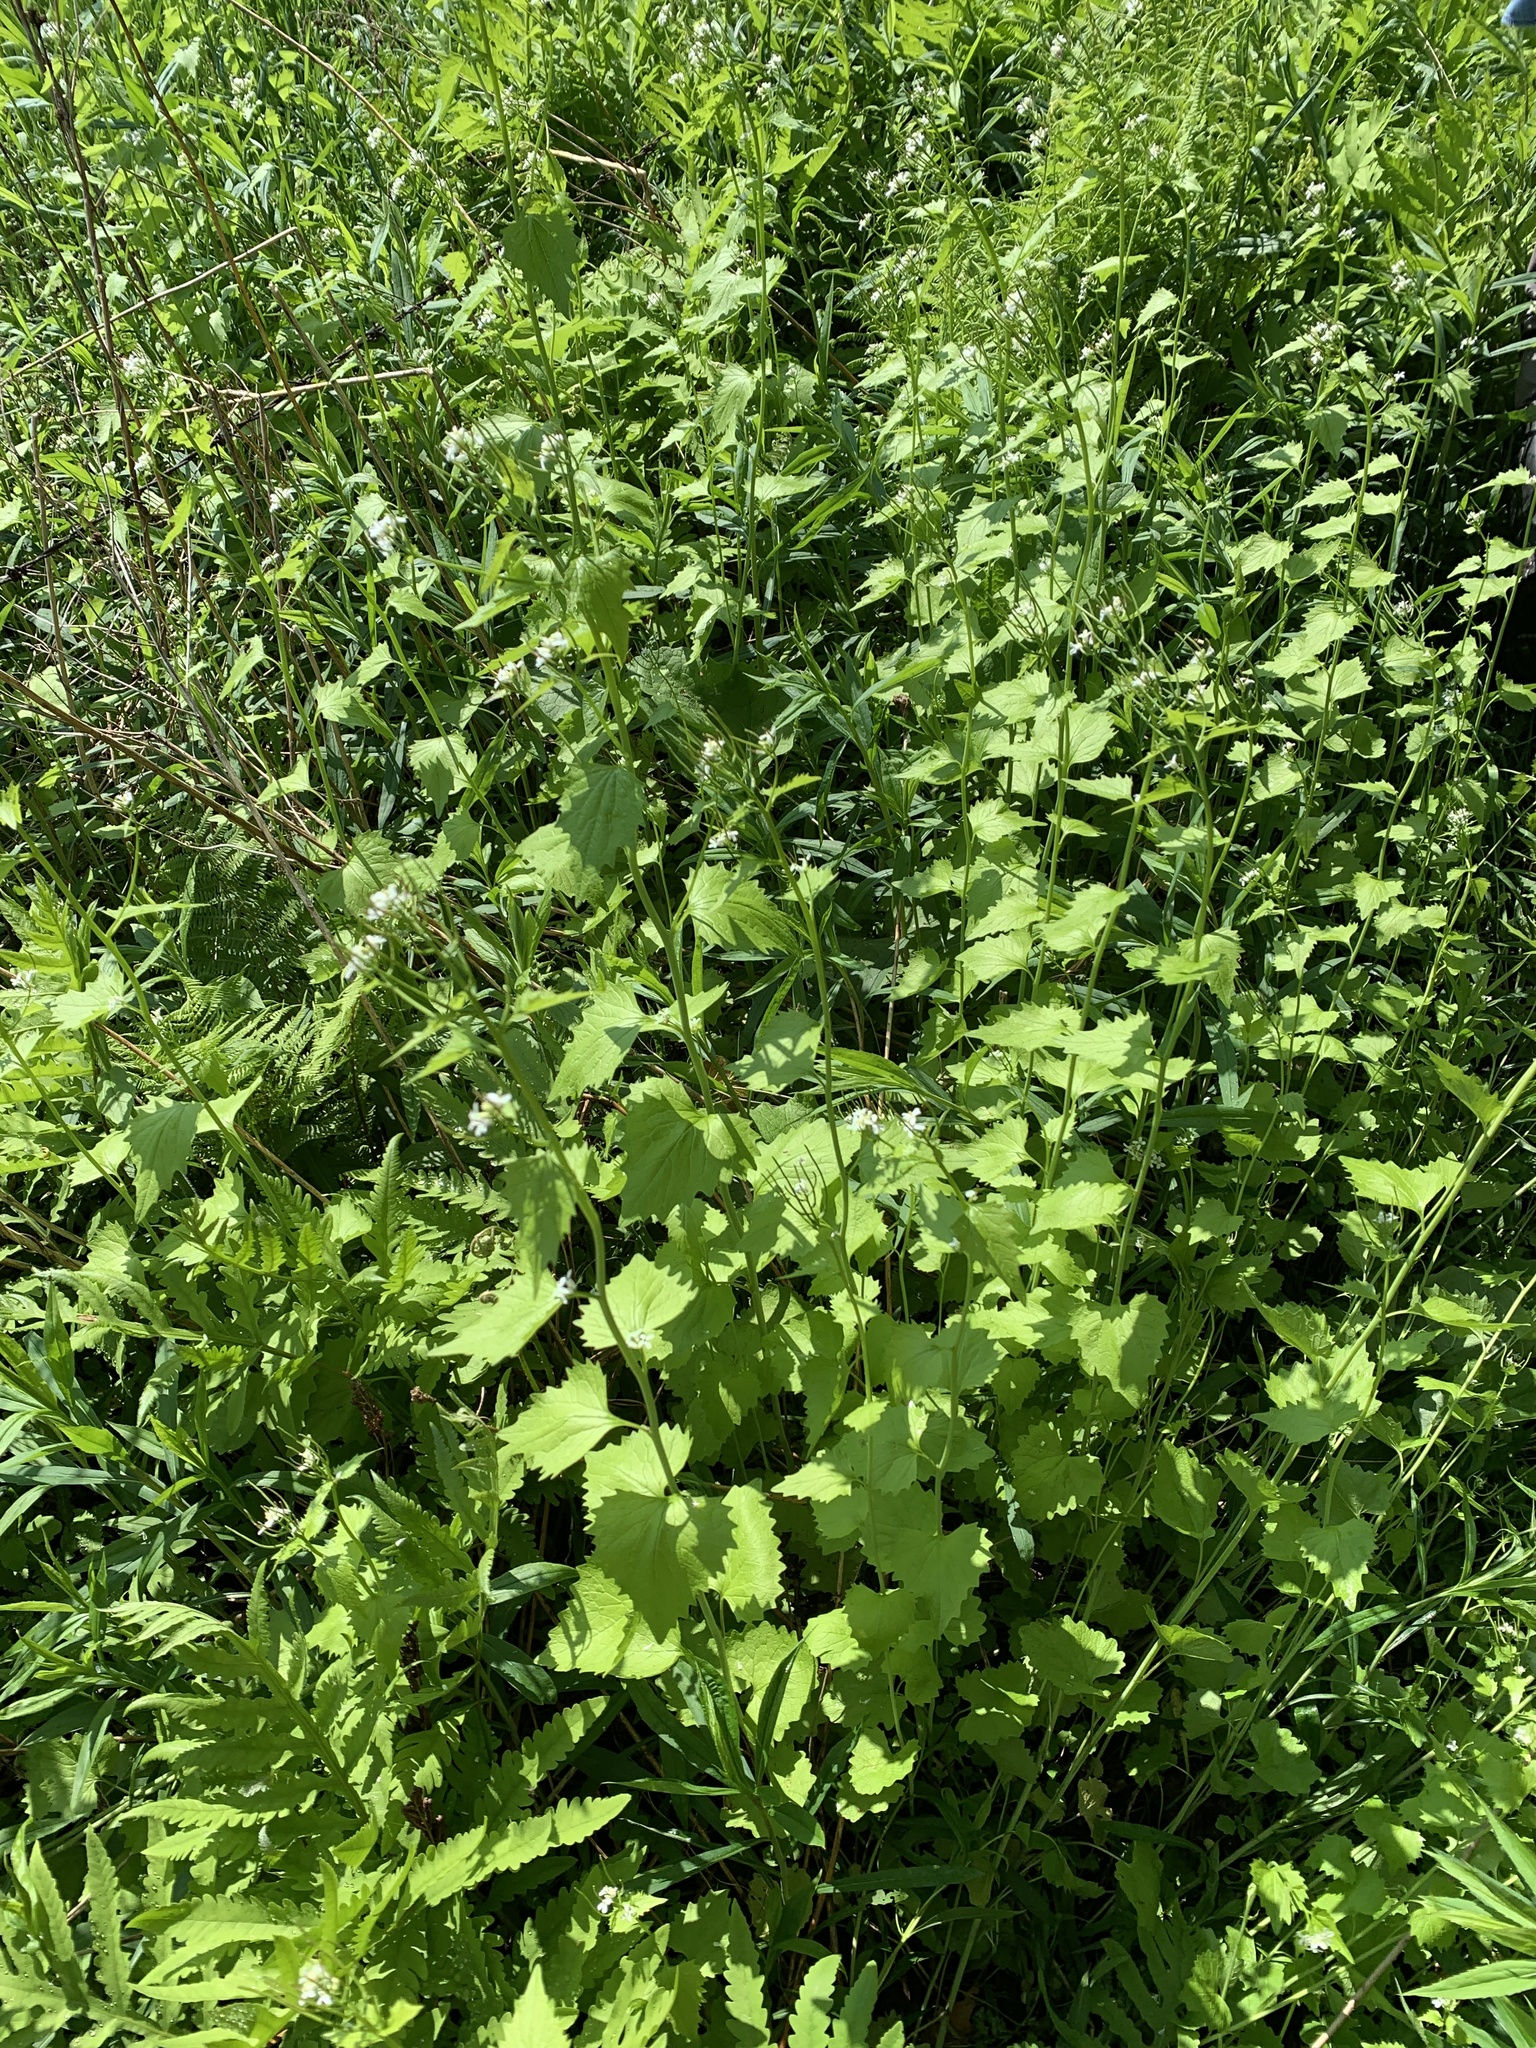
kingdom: Plantae
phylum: Tracheophyta
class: Magnoliopsida
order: Brassicales
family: Brassicaceae
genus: Alliaria
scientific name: Alliaria petiolata
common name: Garlic mustard
